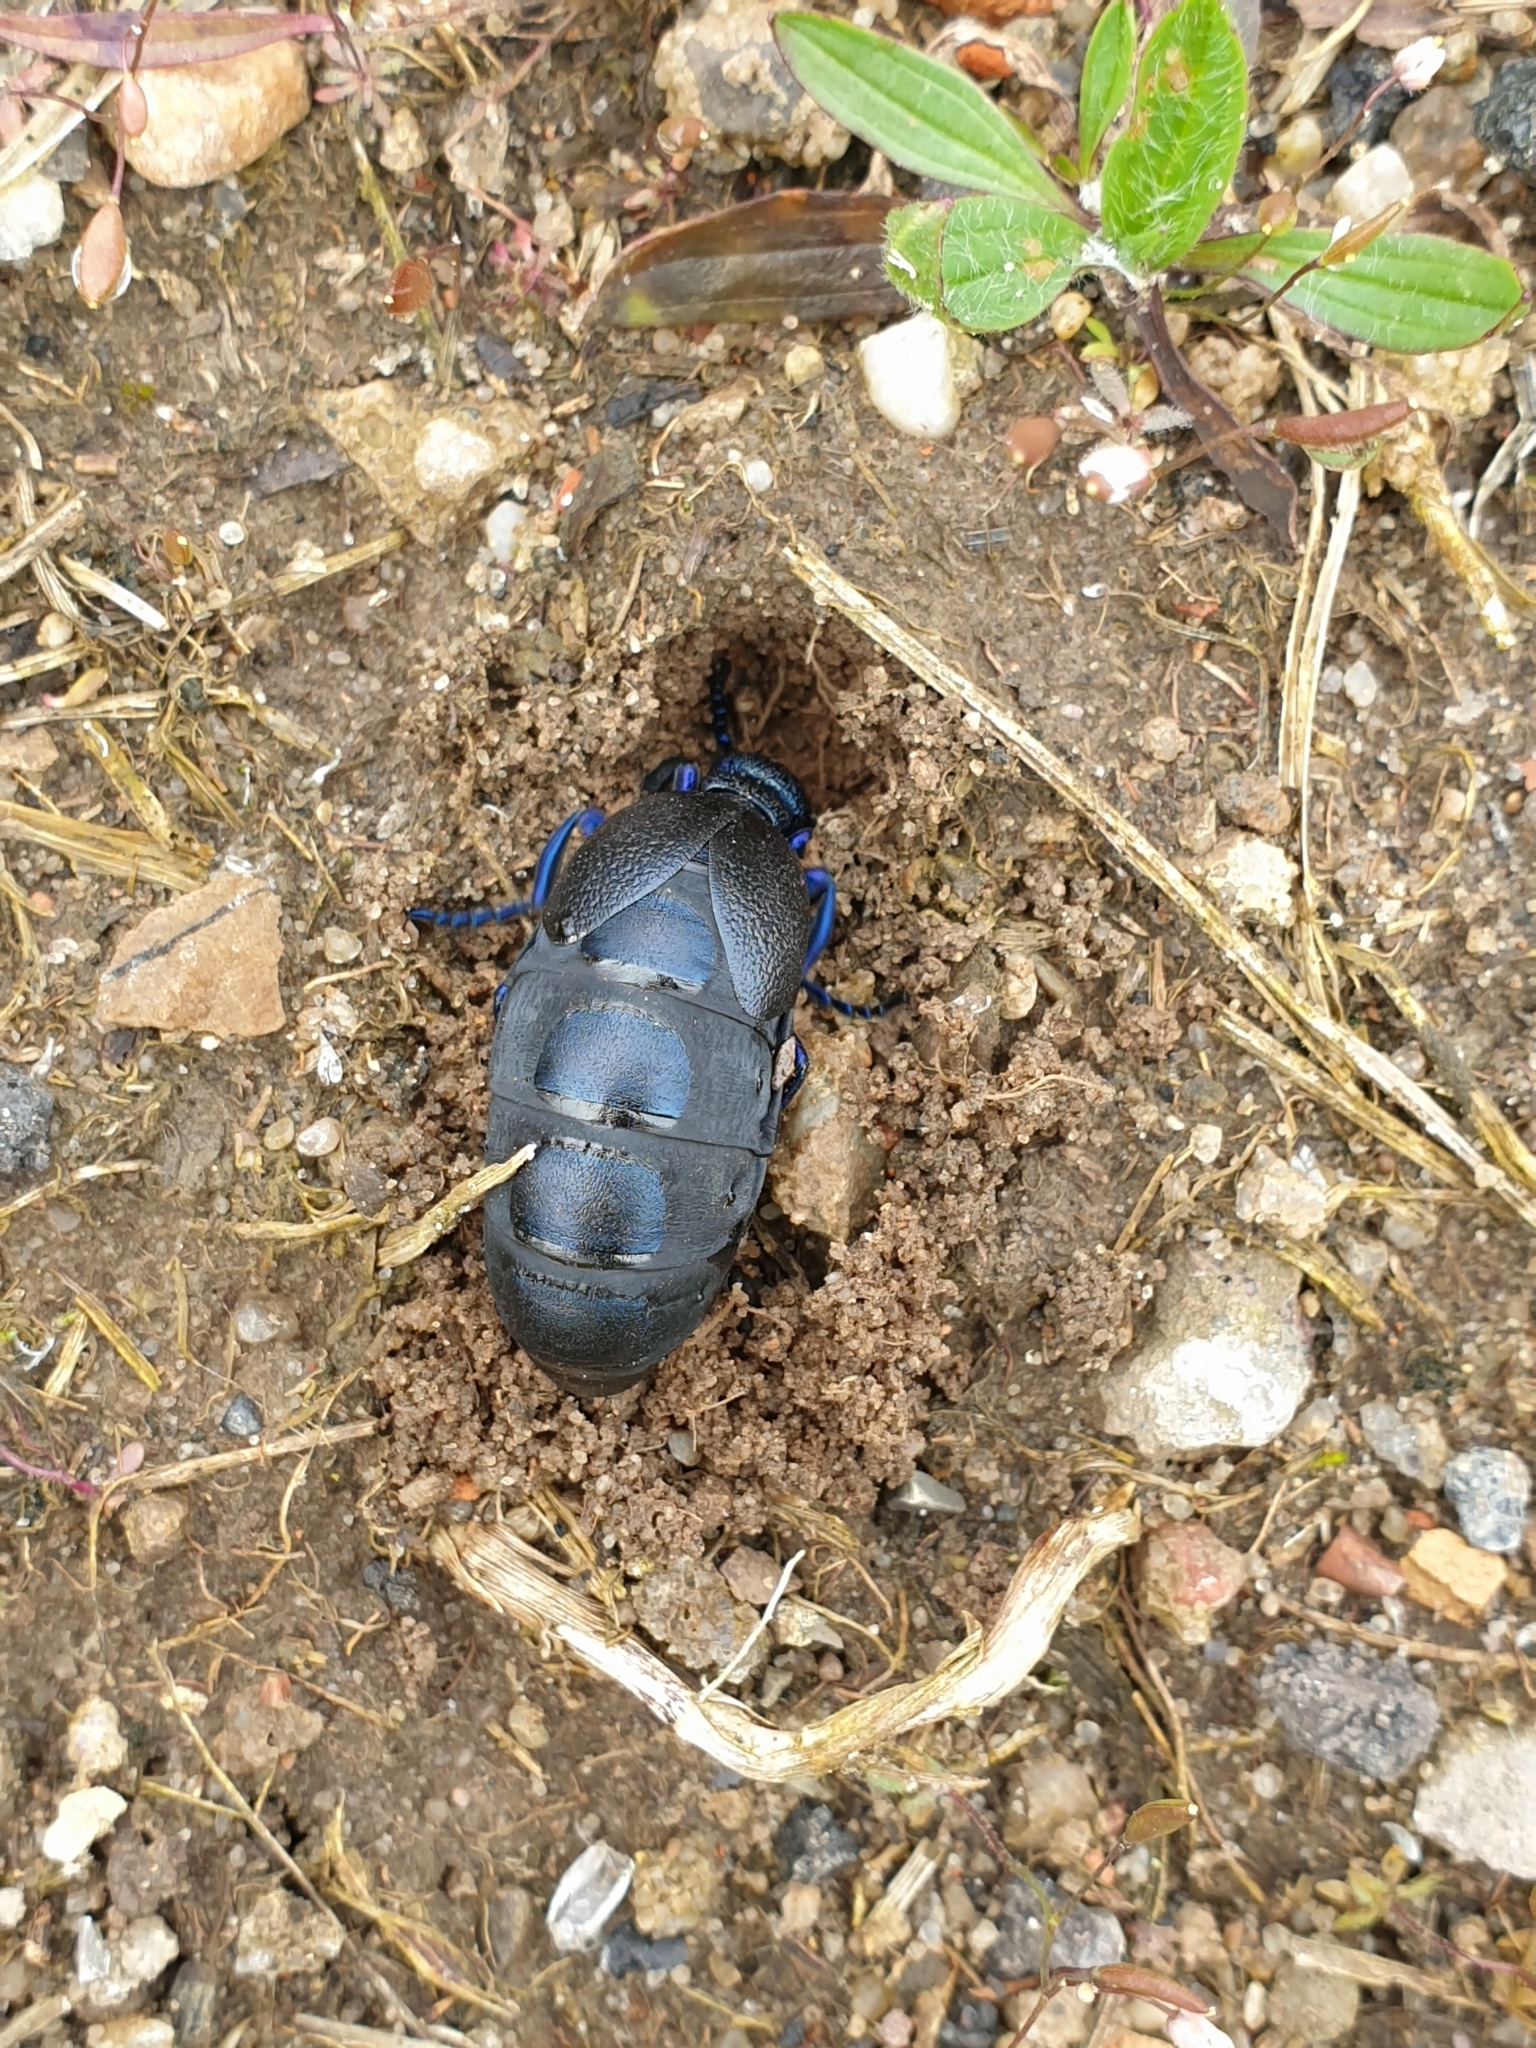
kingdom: Animalia
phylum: Arthropoda
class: Insecta
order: Coleoptera
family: Meloidae
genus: Meloe
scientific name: Meloe proscarabaeus
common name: Black oil-beetle
